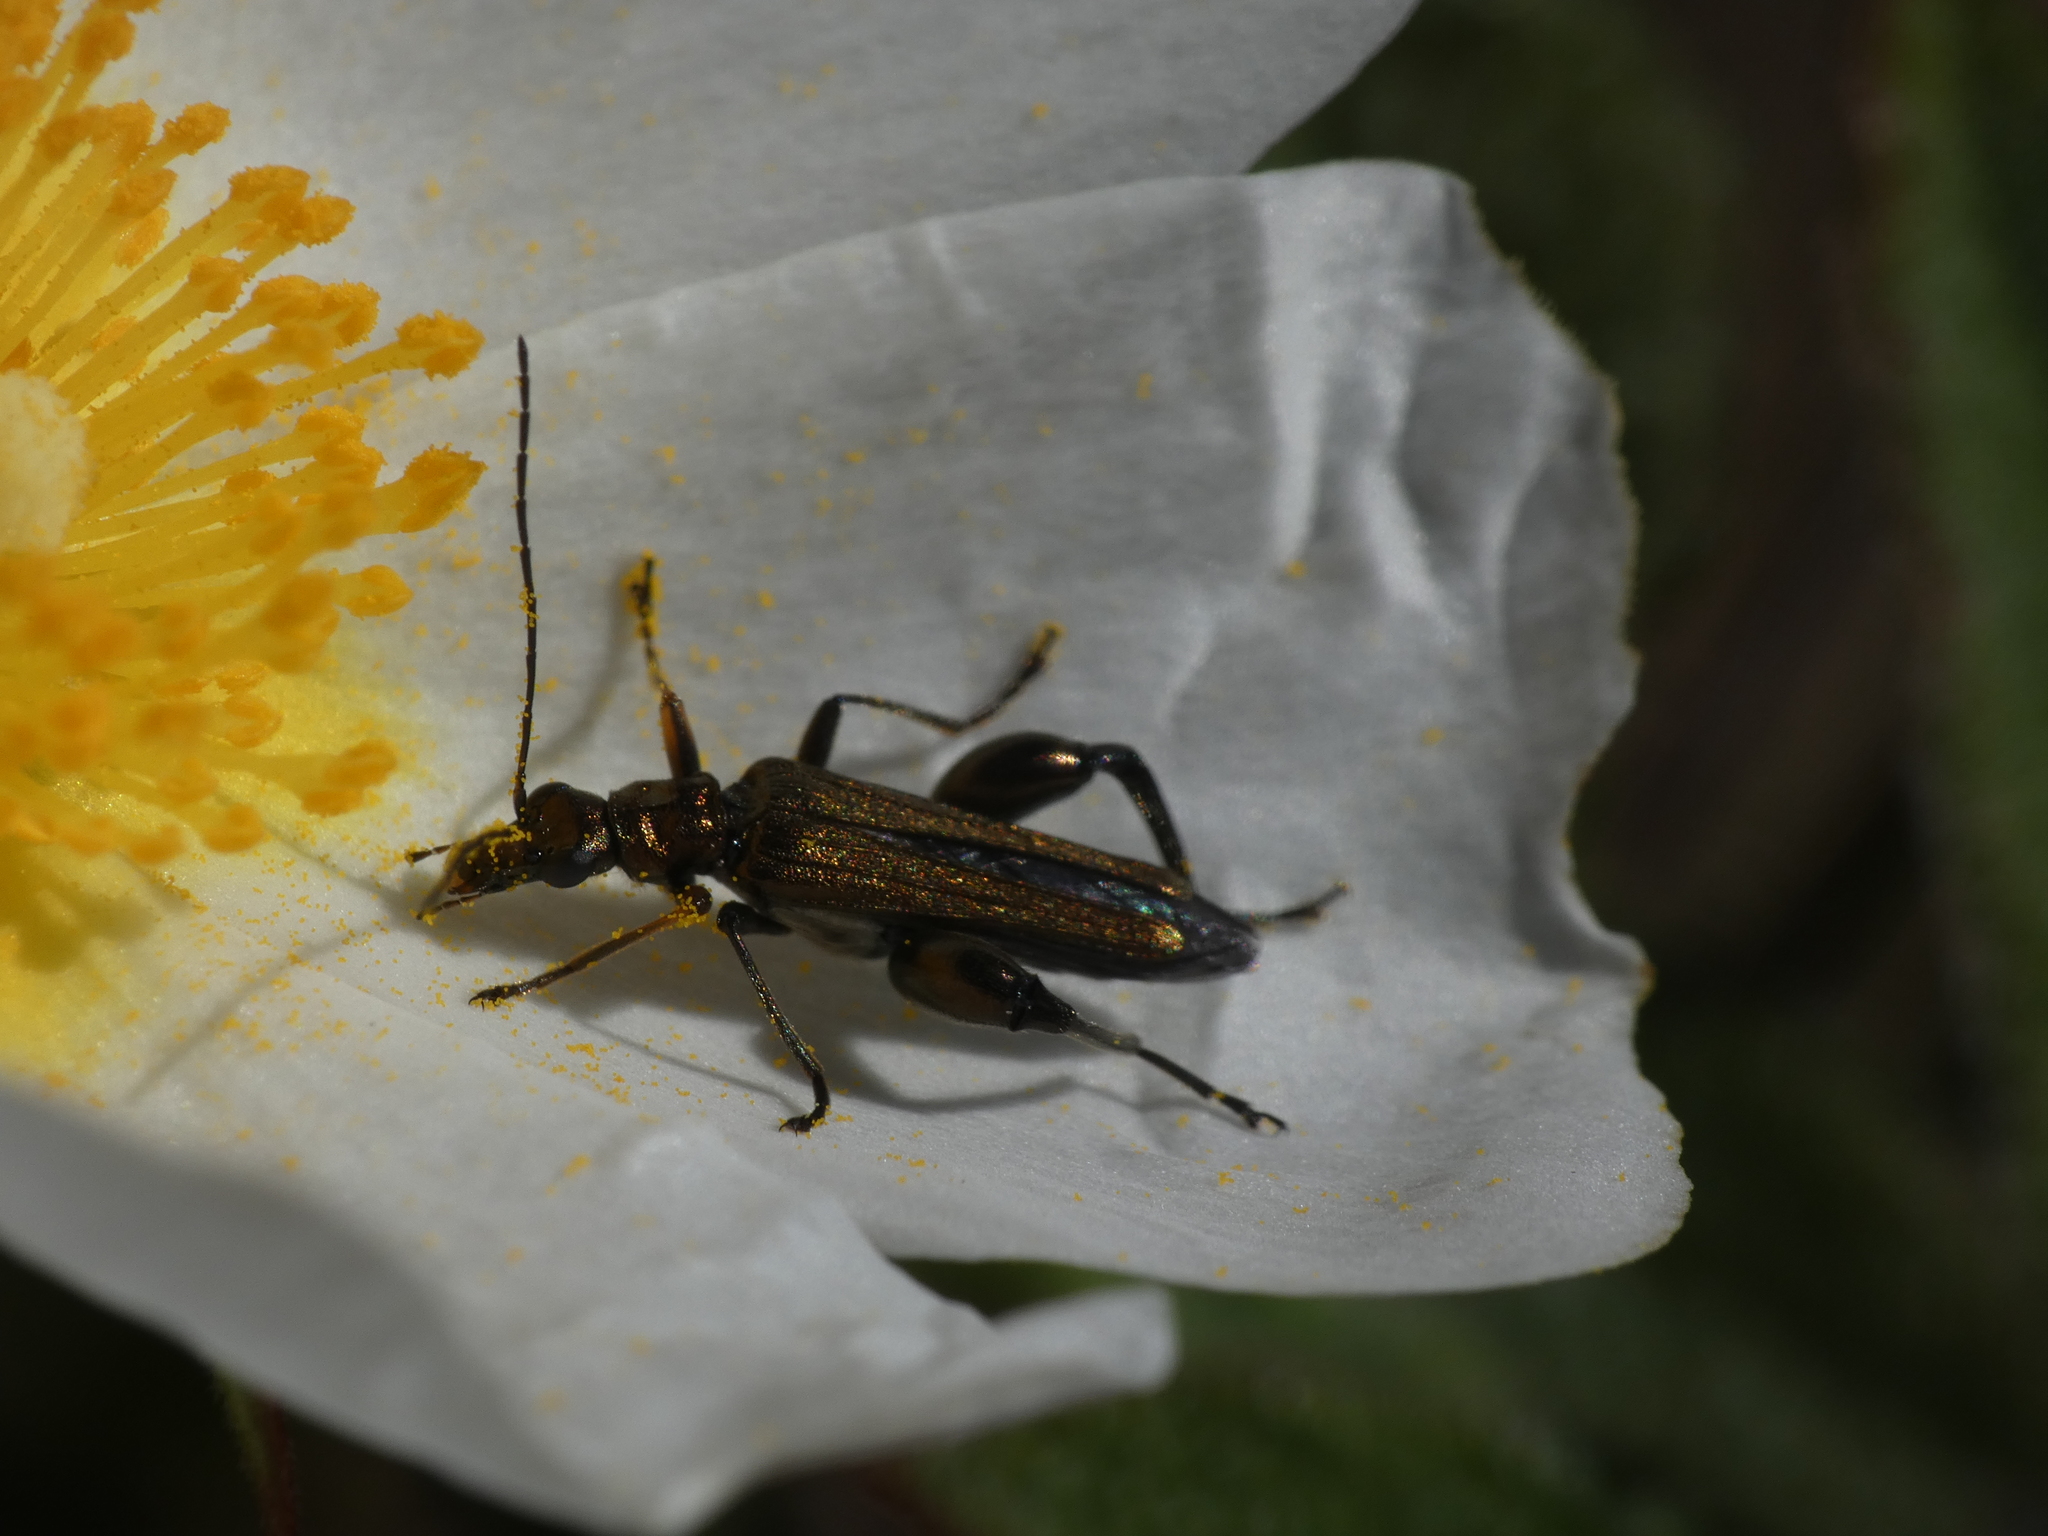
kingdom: Animalia
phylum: Arthropoda
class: Insecta
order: Coleoptera
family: Oedemeridae
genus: Oedemera
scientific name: Oedemera flavipes
